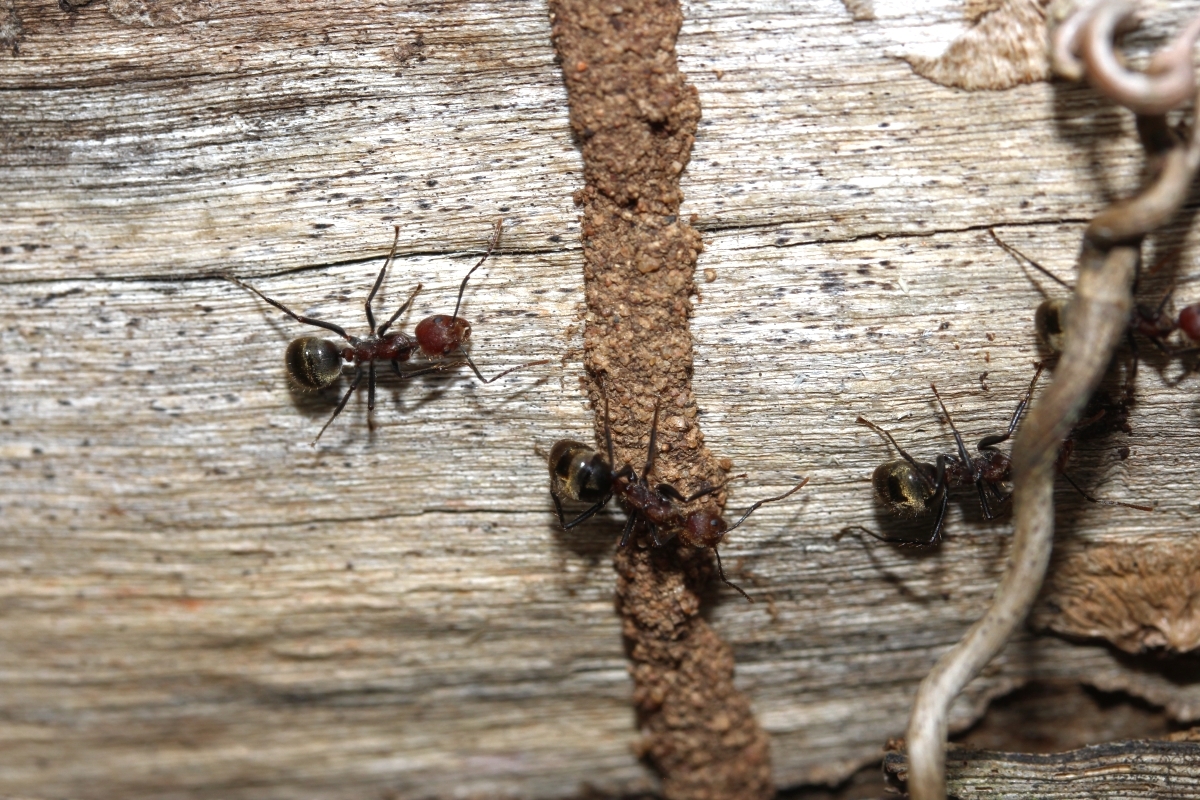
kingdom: Animalia
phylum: Arthropoda
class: Insecta
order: Hymenoptera
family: Formicidae
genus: Dolichoderus
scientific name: Dolichoderus quadridenticulatus
